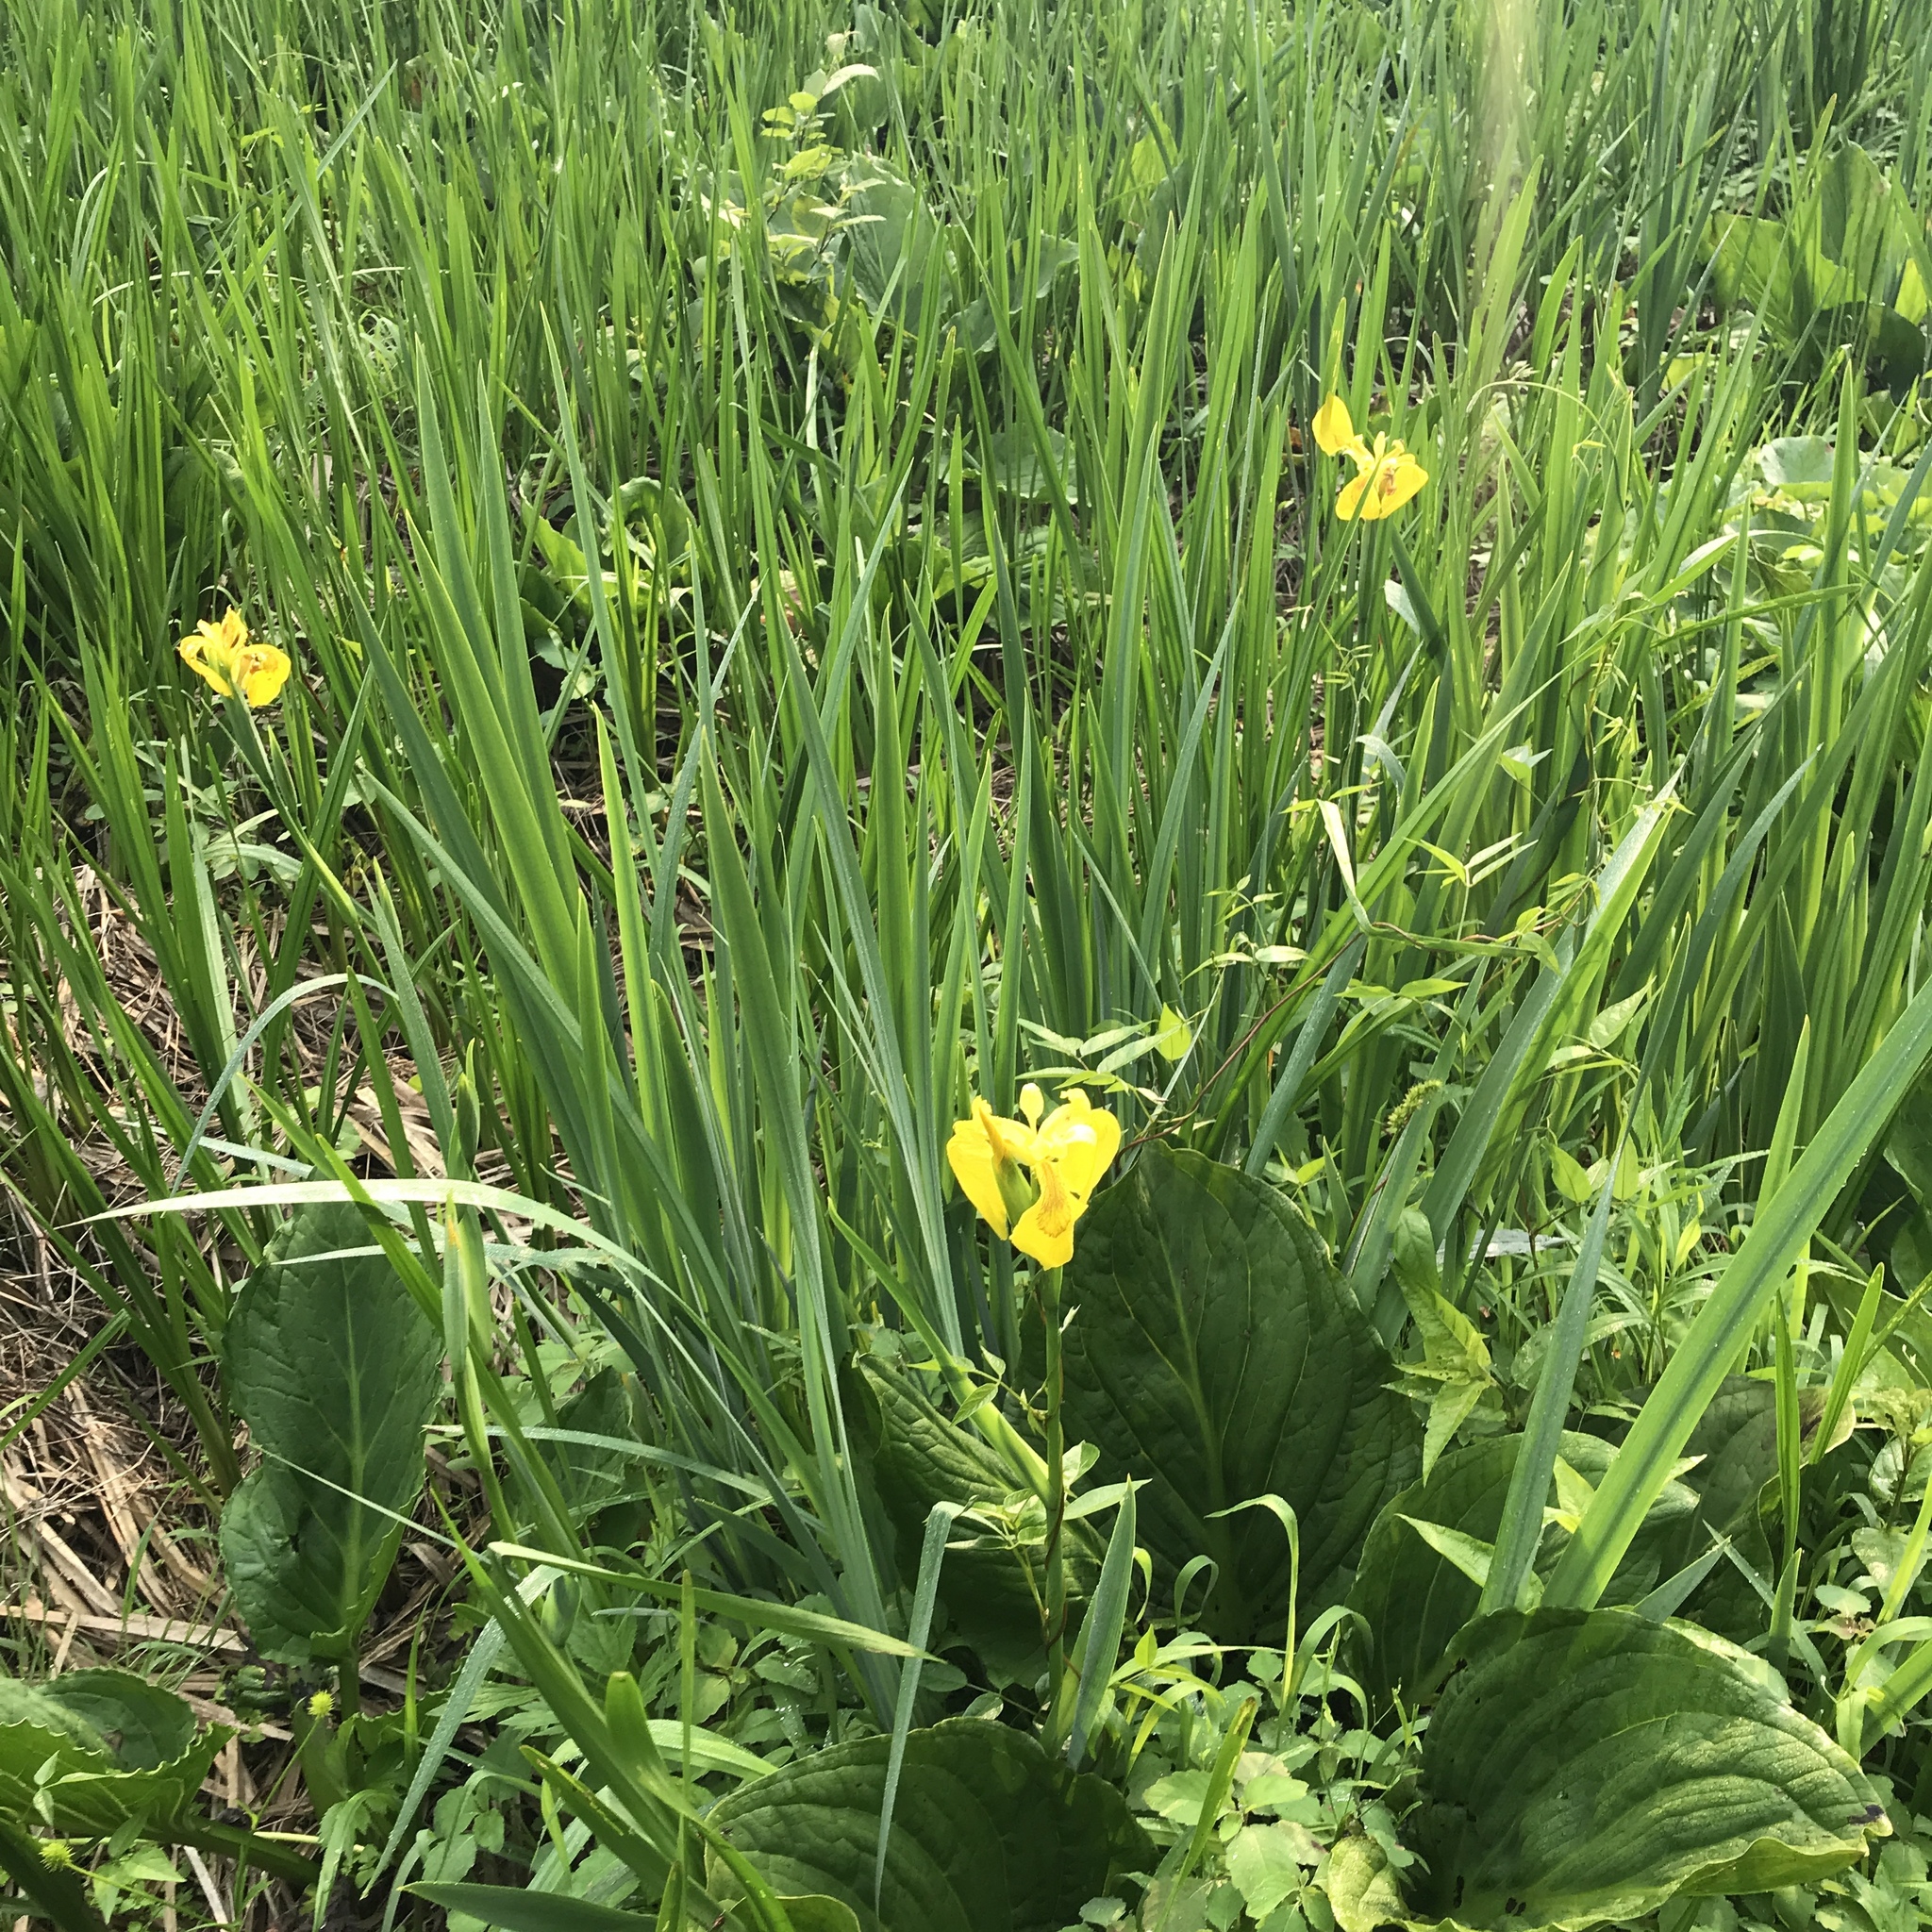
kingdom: Plantae
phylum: Tracheophyta
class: Liliopsida
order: Asparagales
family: Iridaceae
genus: Iris
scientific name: Iris pseudacorus
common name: Yellow flag
